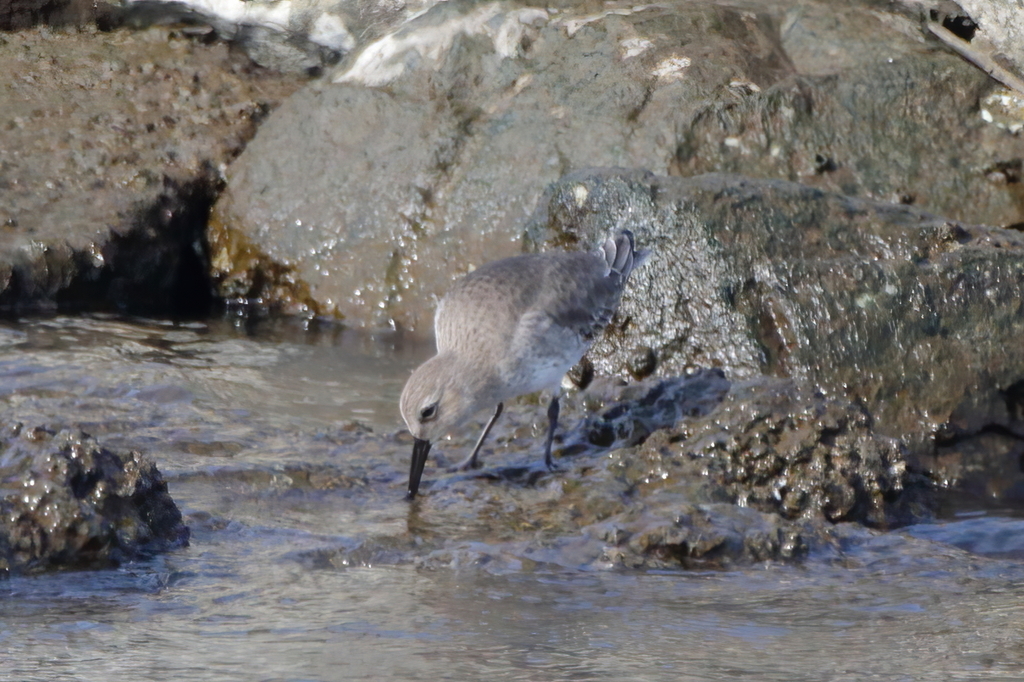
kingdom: Animalia
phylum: Chordata
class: Aves
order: Charadriiformes
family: Scolopacidae
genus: Tringa
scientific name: Tringa semipalmata
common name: Willet
